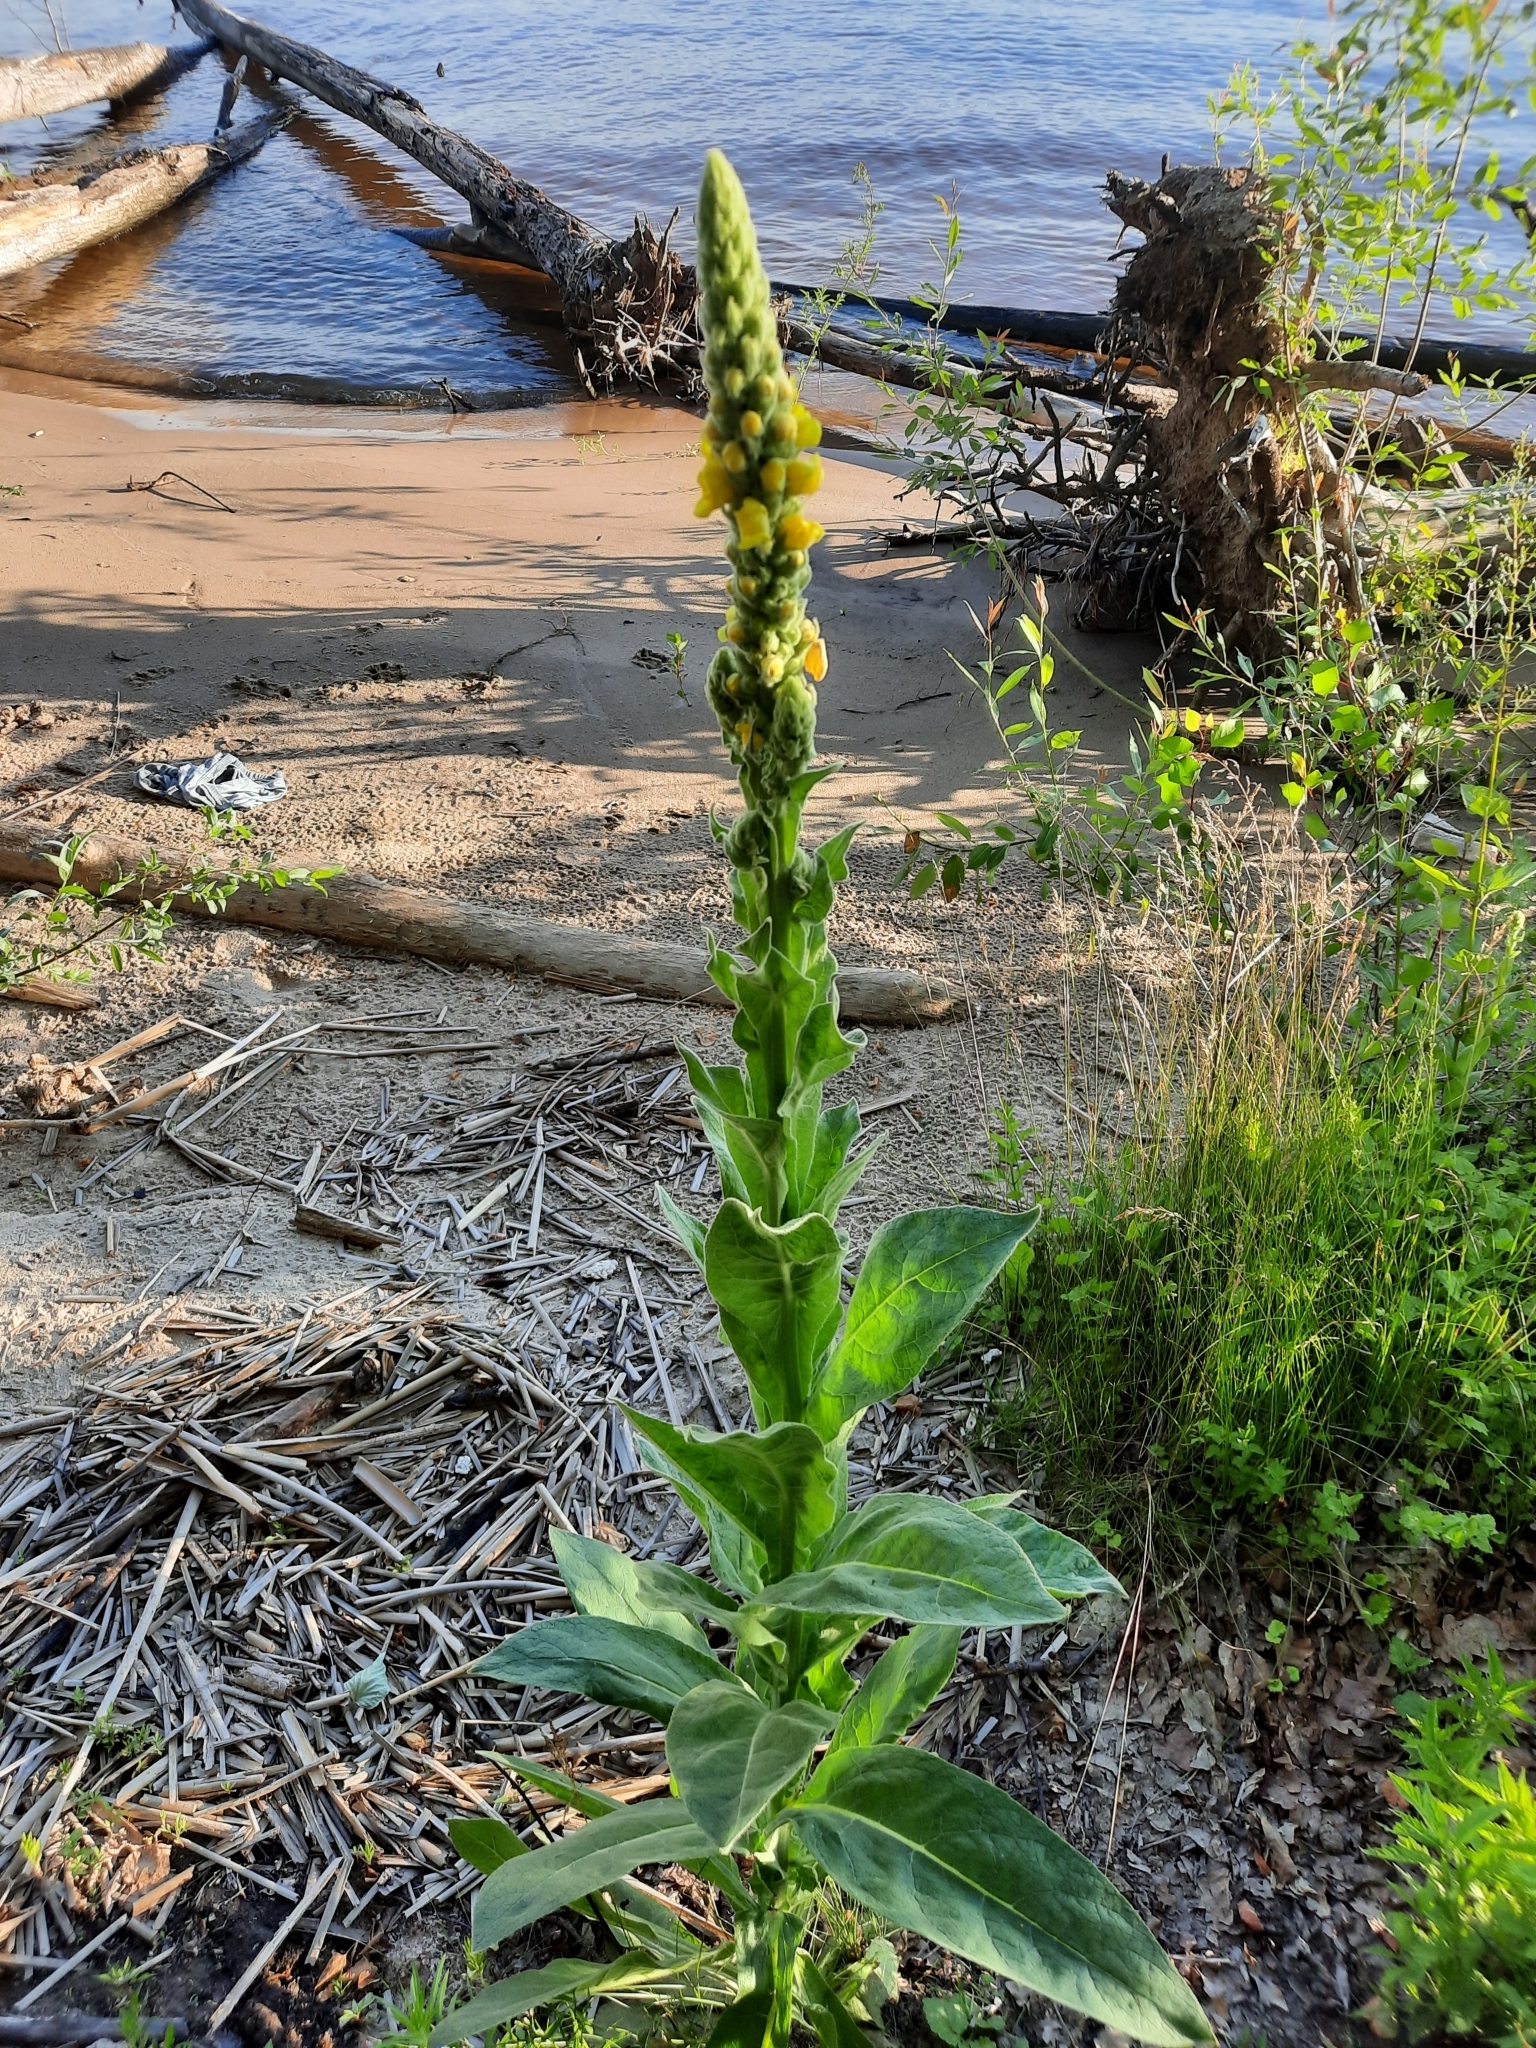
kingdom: Plantae
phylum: Tracheophyta
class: Magnoliopsida
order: Lamiales
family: Scrophulariaceae
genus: Verbascum
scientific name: Verbascum thapsus
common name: Common mullein
